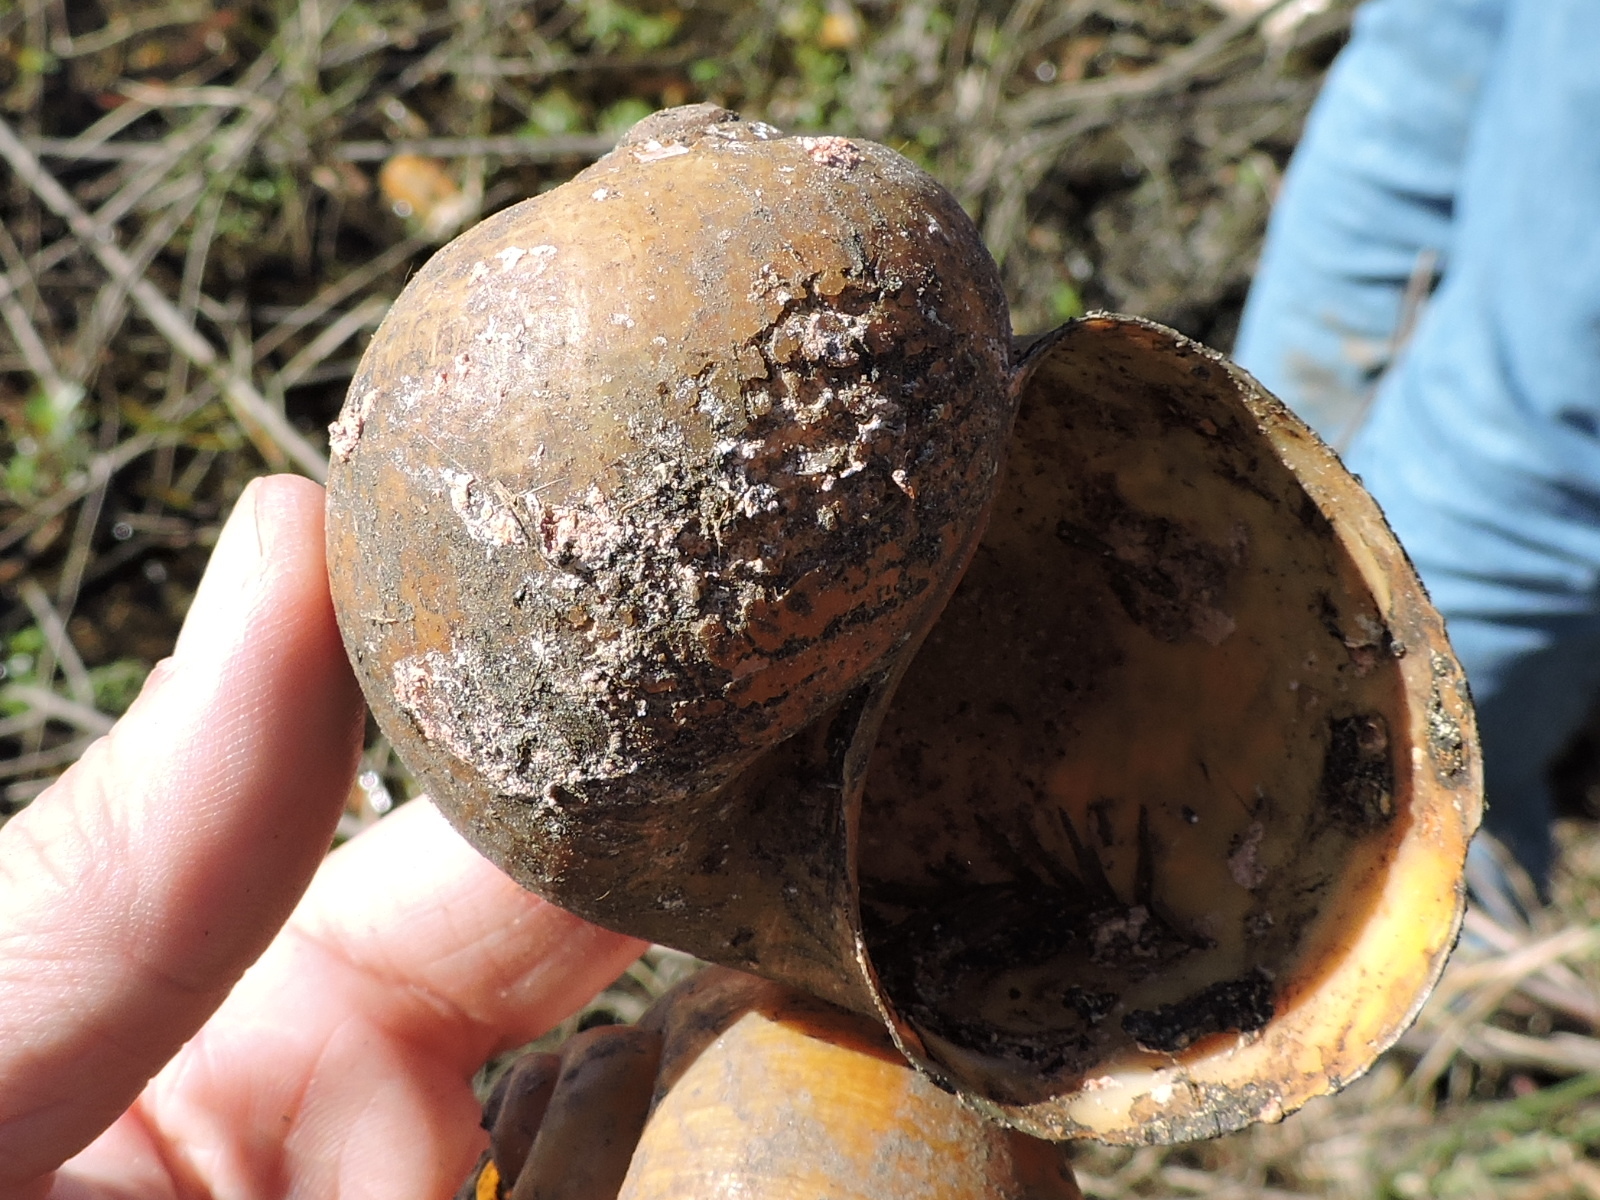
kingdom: Animalia
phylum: Mollusca
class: Gastropoda
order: Architaenioglossa
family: Ampullariidae
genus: Pomacea
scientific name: Pomacea maculata
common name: Giant applesnail
